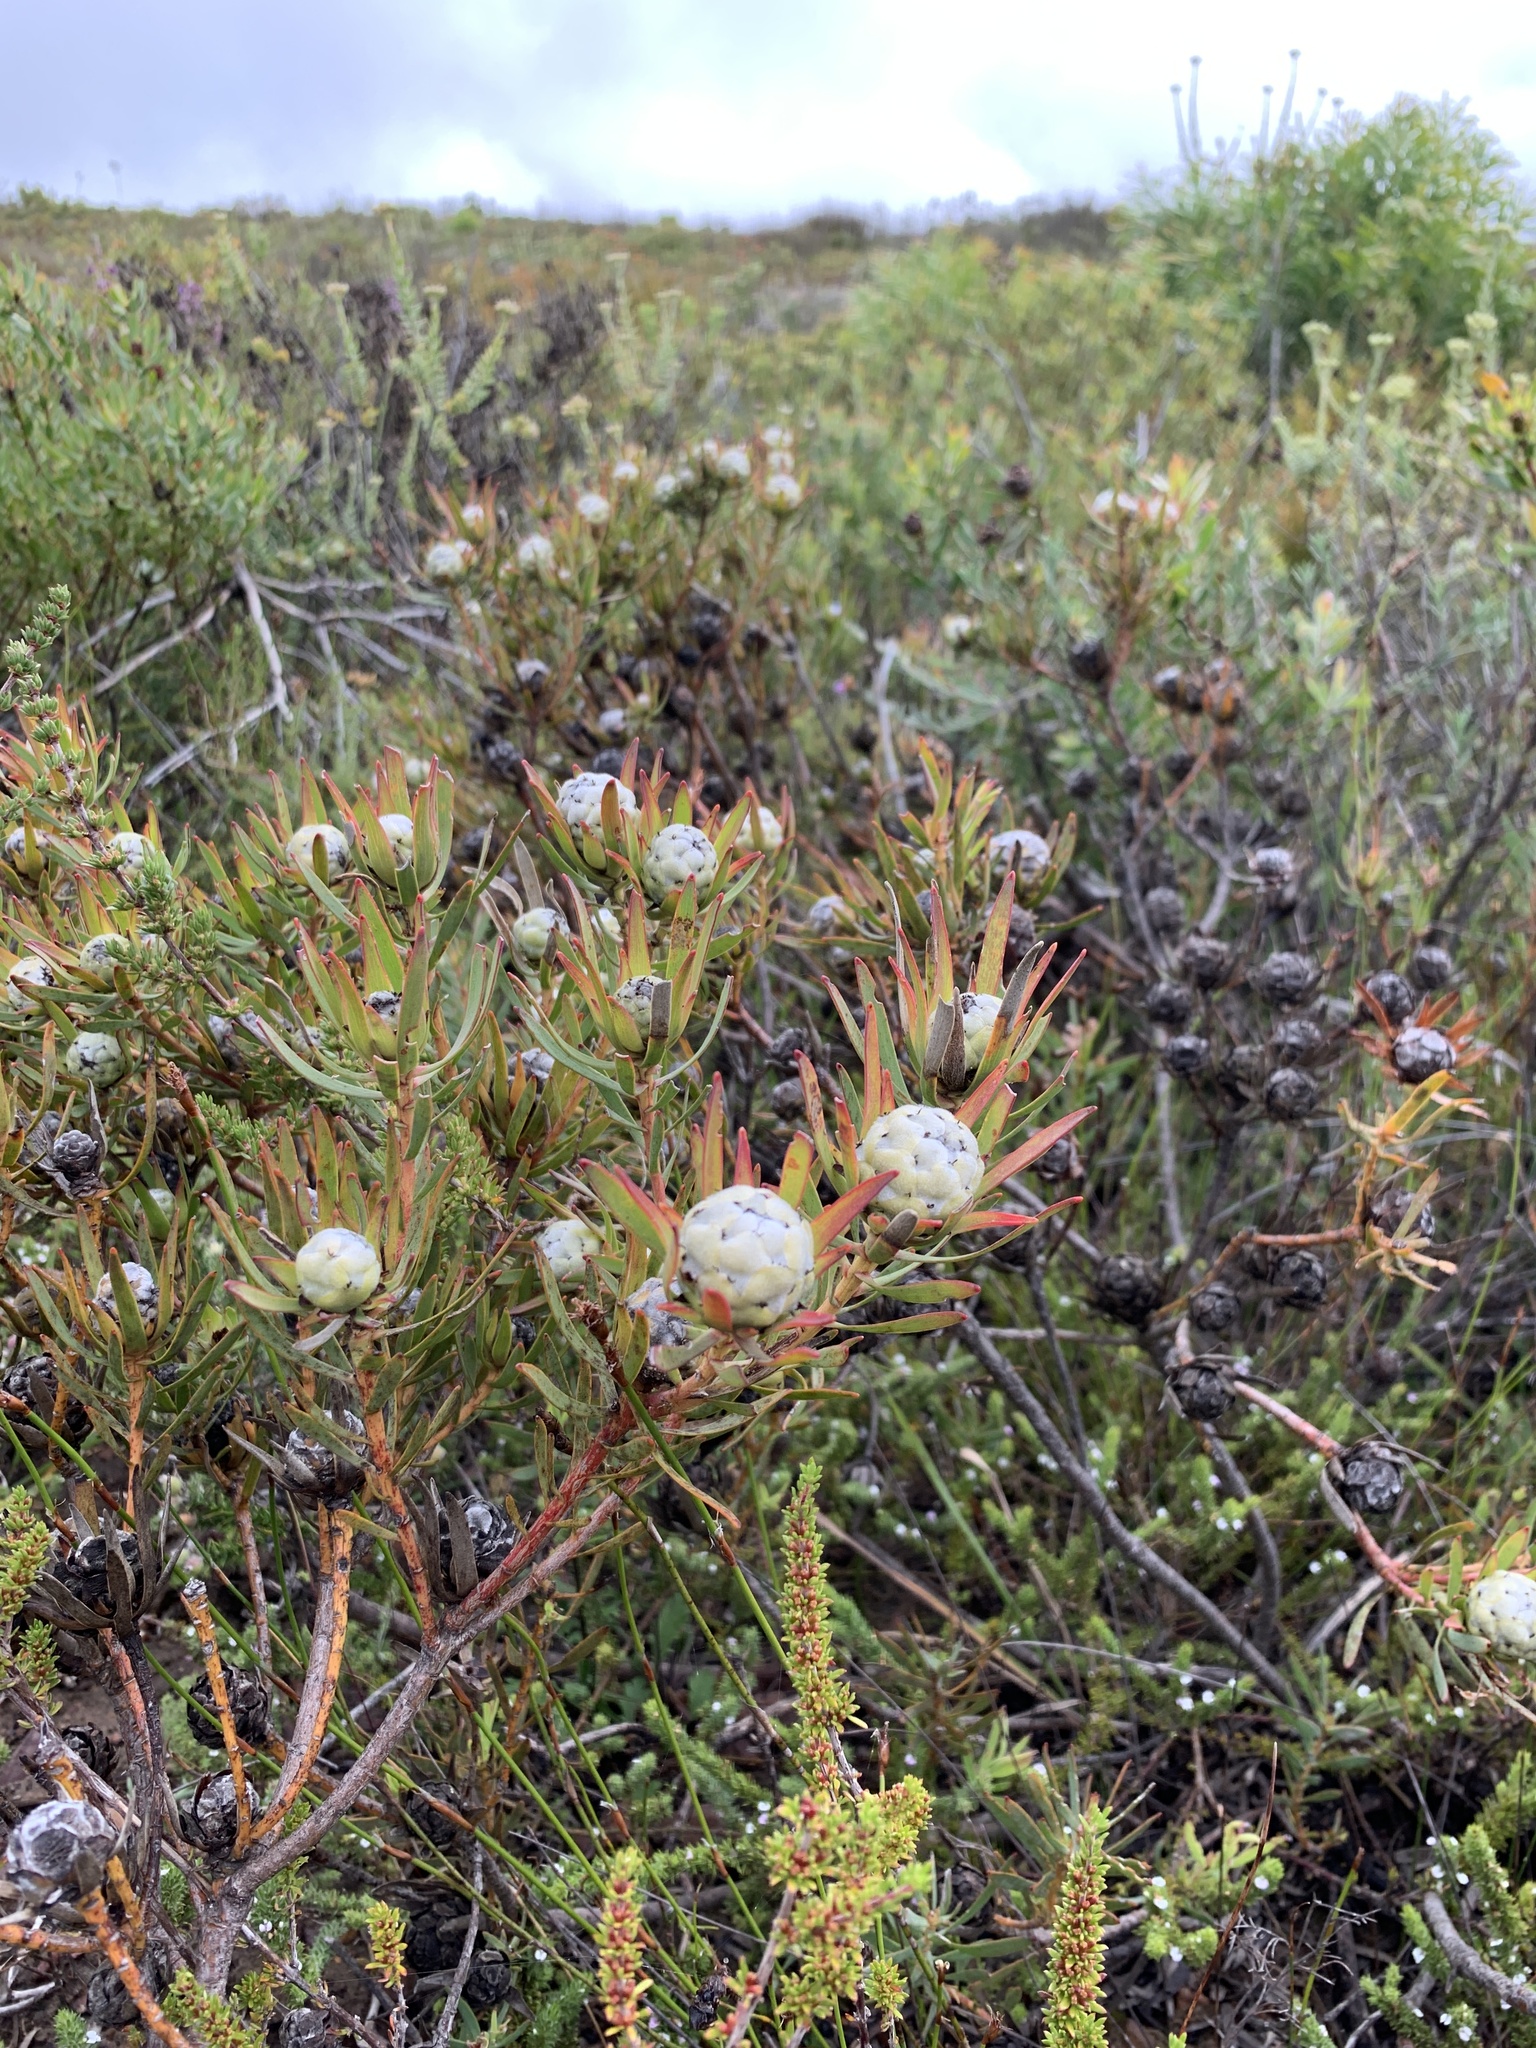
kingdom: Plantae
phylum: Tracheophyta
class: Magnoliopsida
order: Proteales
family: Proteaceae
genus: Leucadendron
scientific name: Leucadendron salignum
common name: Common sunshine conebush
